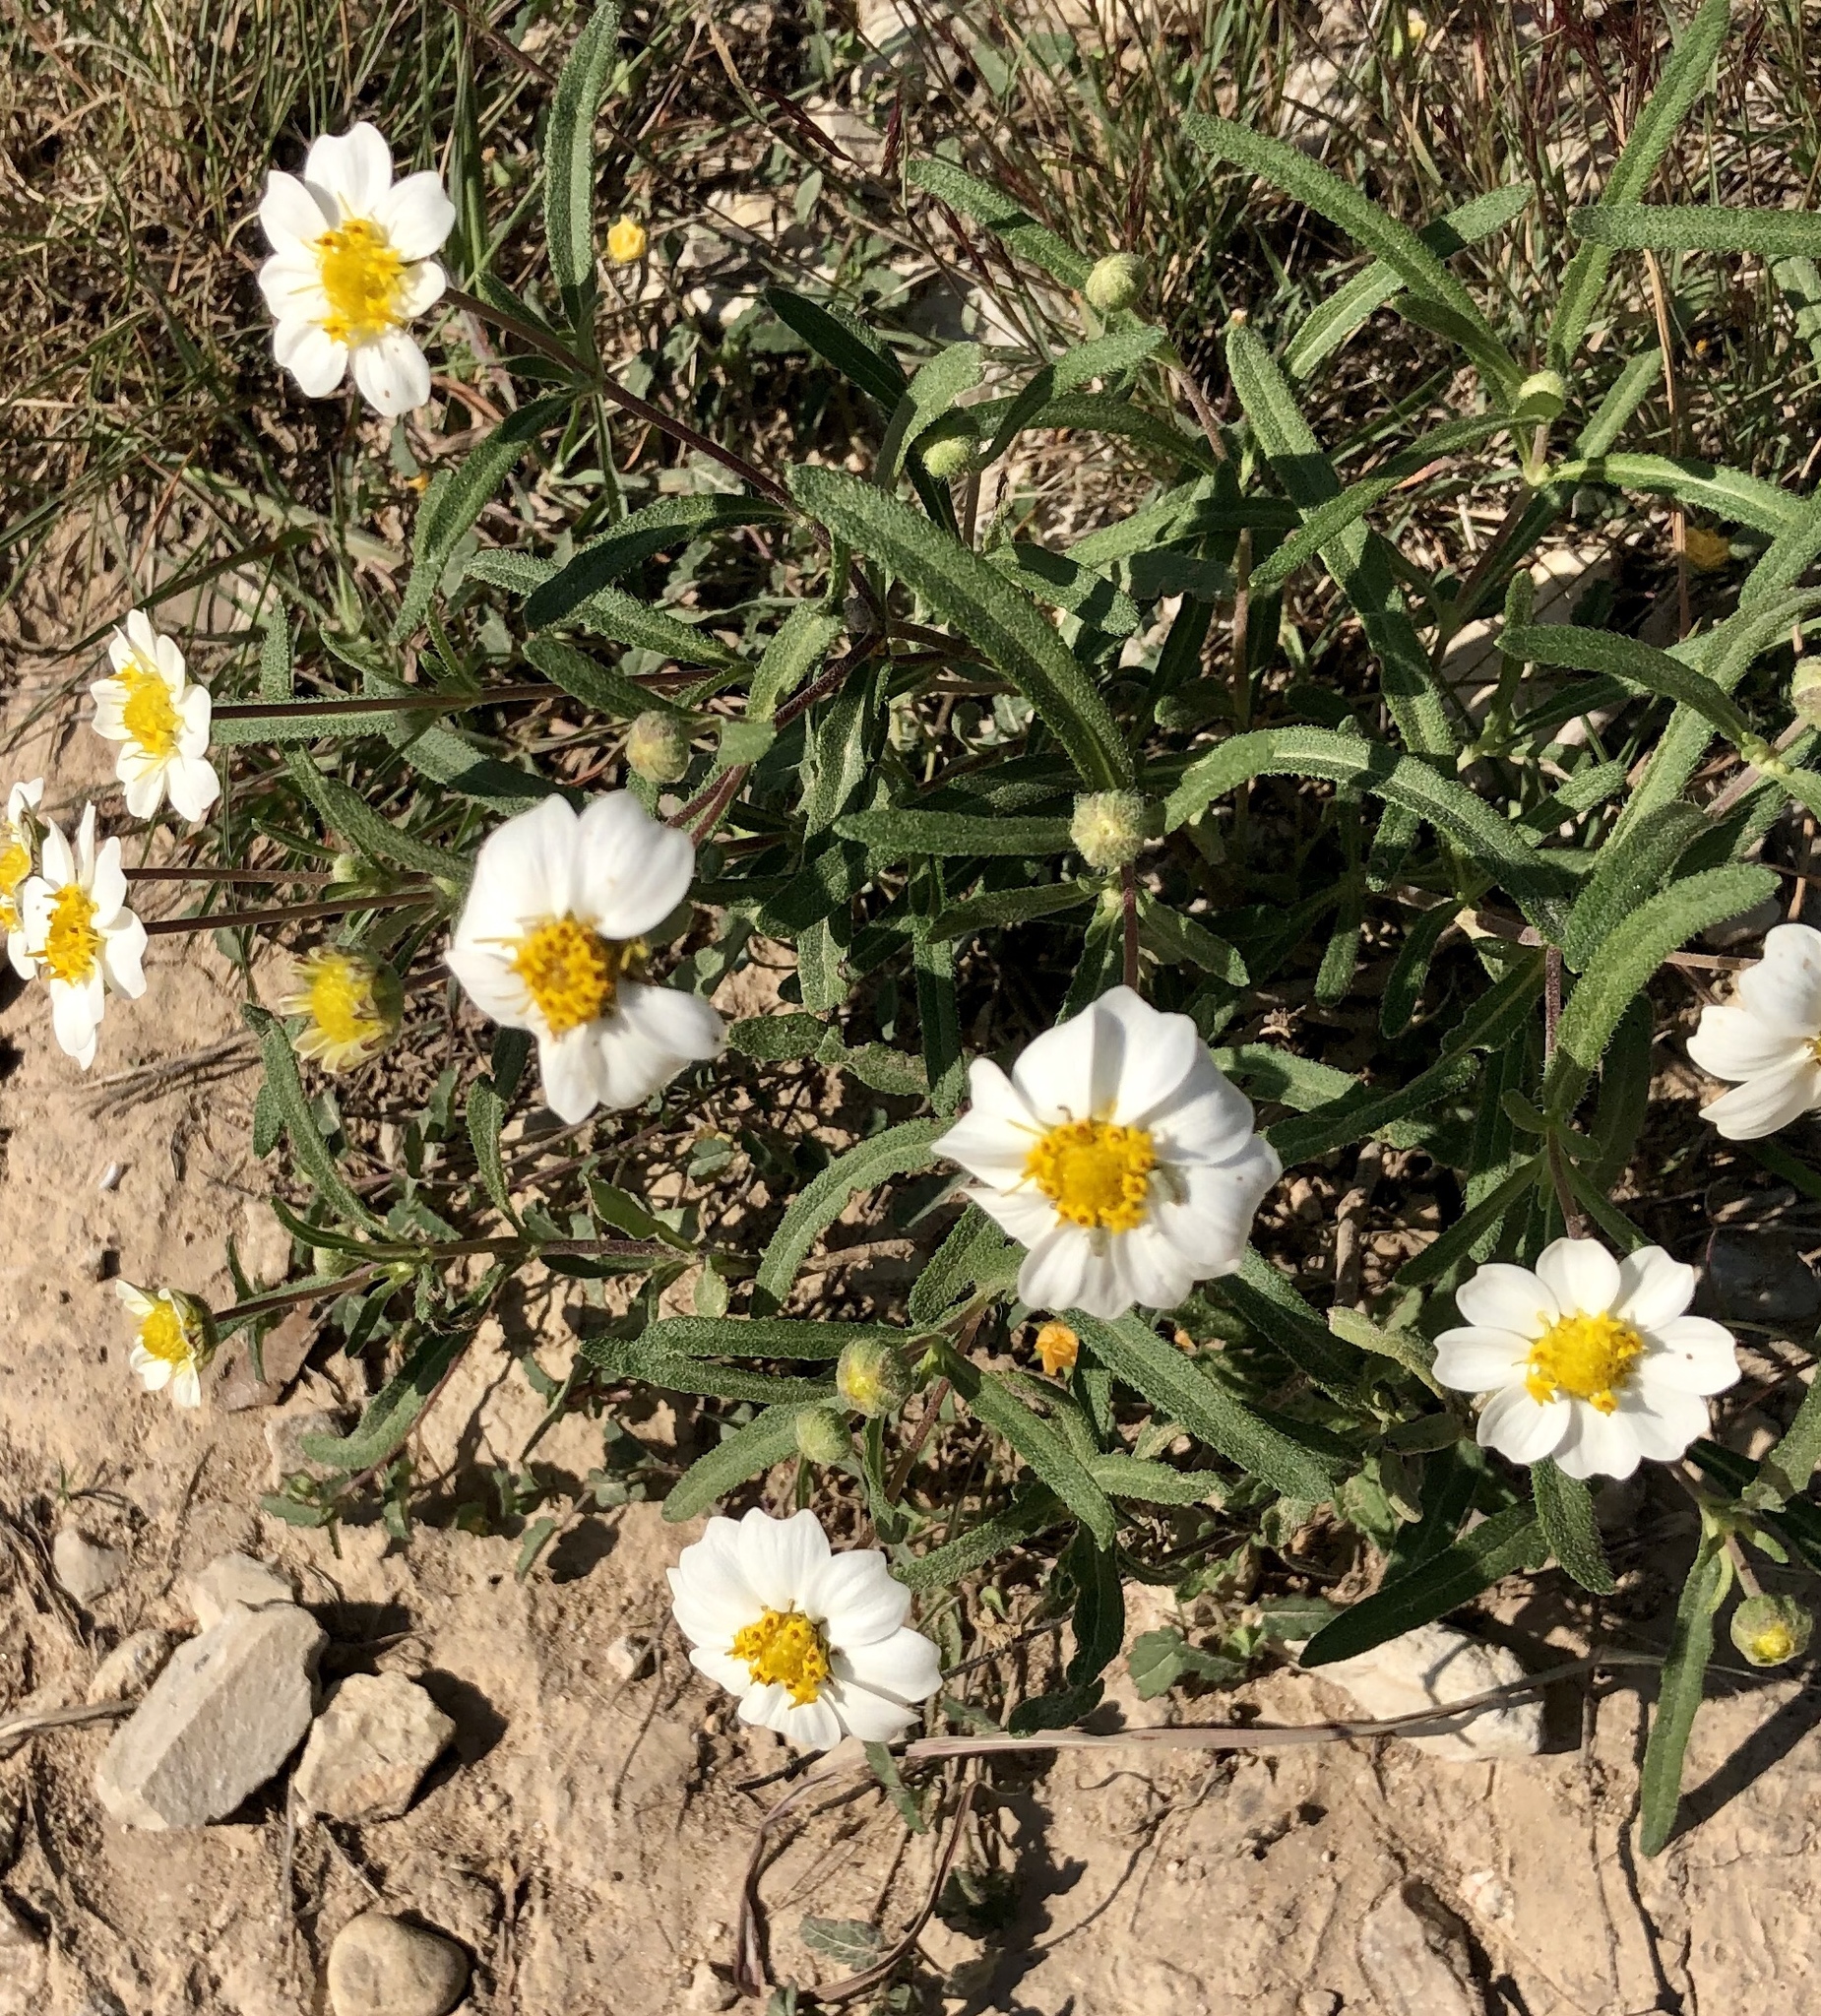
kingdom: Plantae
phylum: Tracheophyta
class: Magnoliopsida
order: Asterales
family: Asteraceae
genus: Melampodium
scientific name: Melampodium leucanthum
